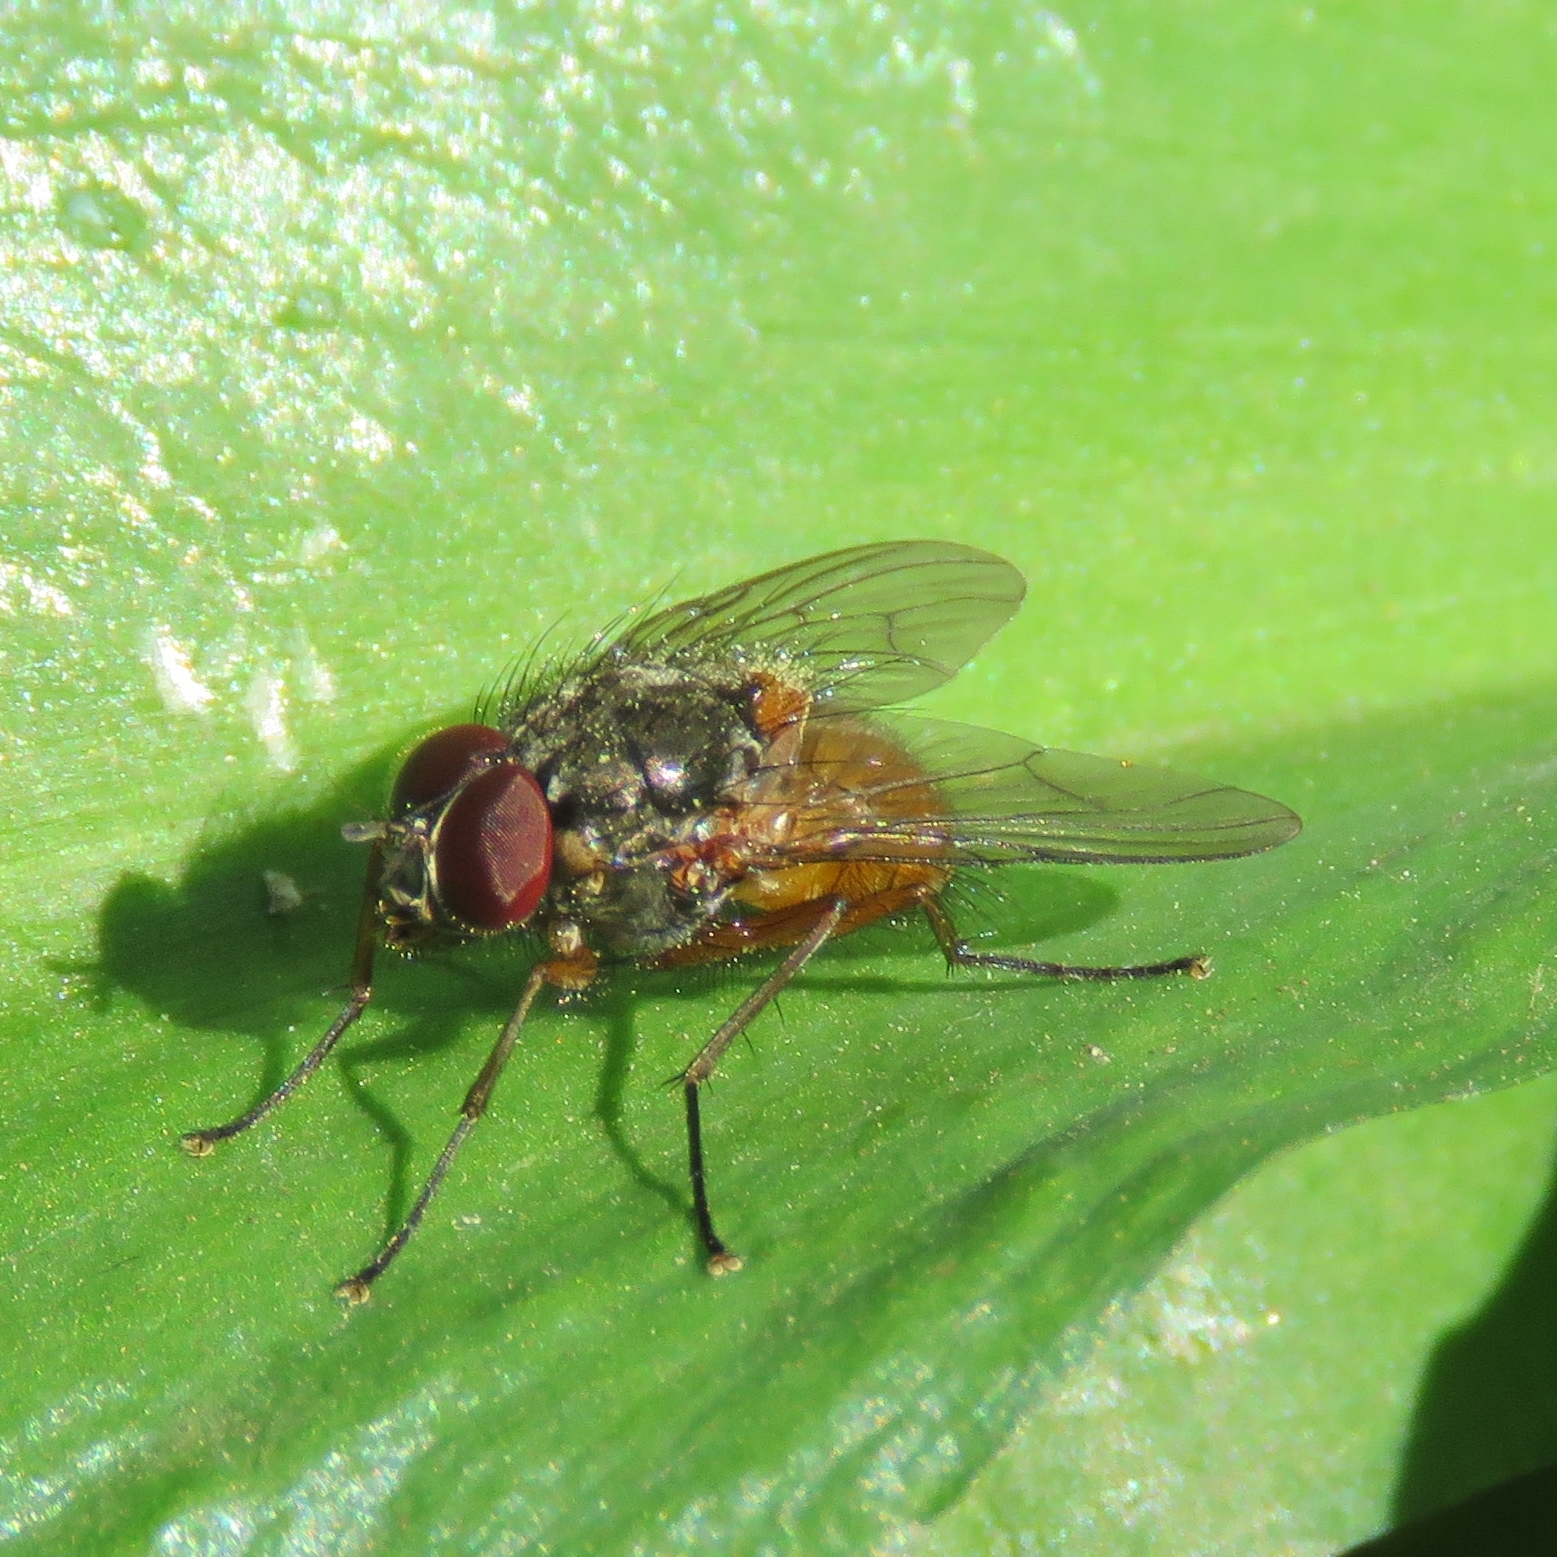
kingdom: Animalia
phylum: Arthropoda
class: Insecta
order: Diptera
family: Muscidae
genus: Phaonia
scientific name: Phaonia subventa
